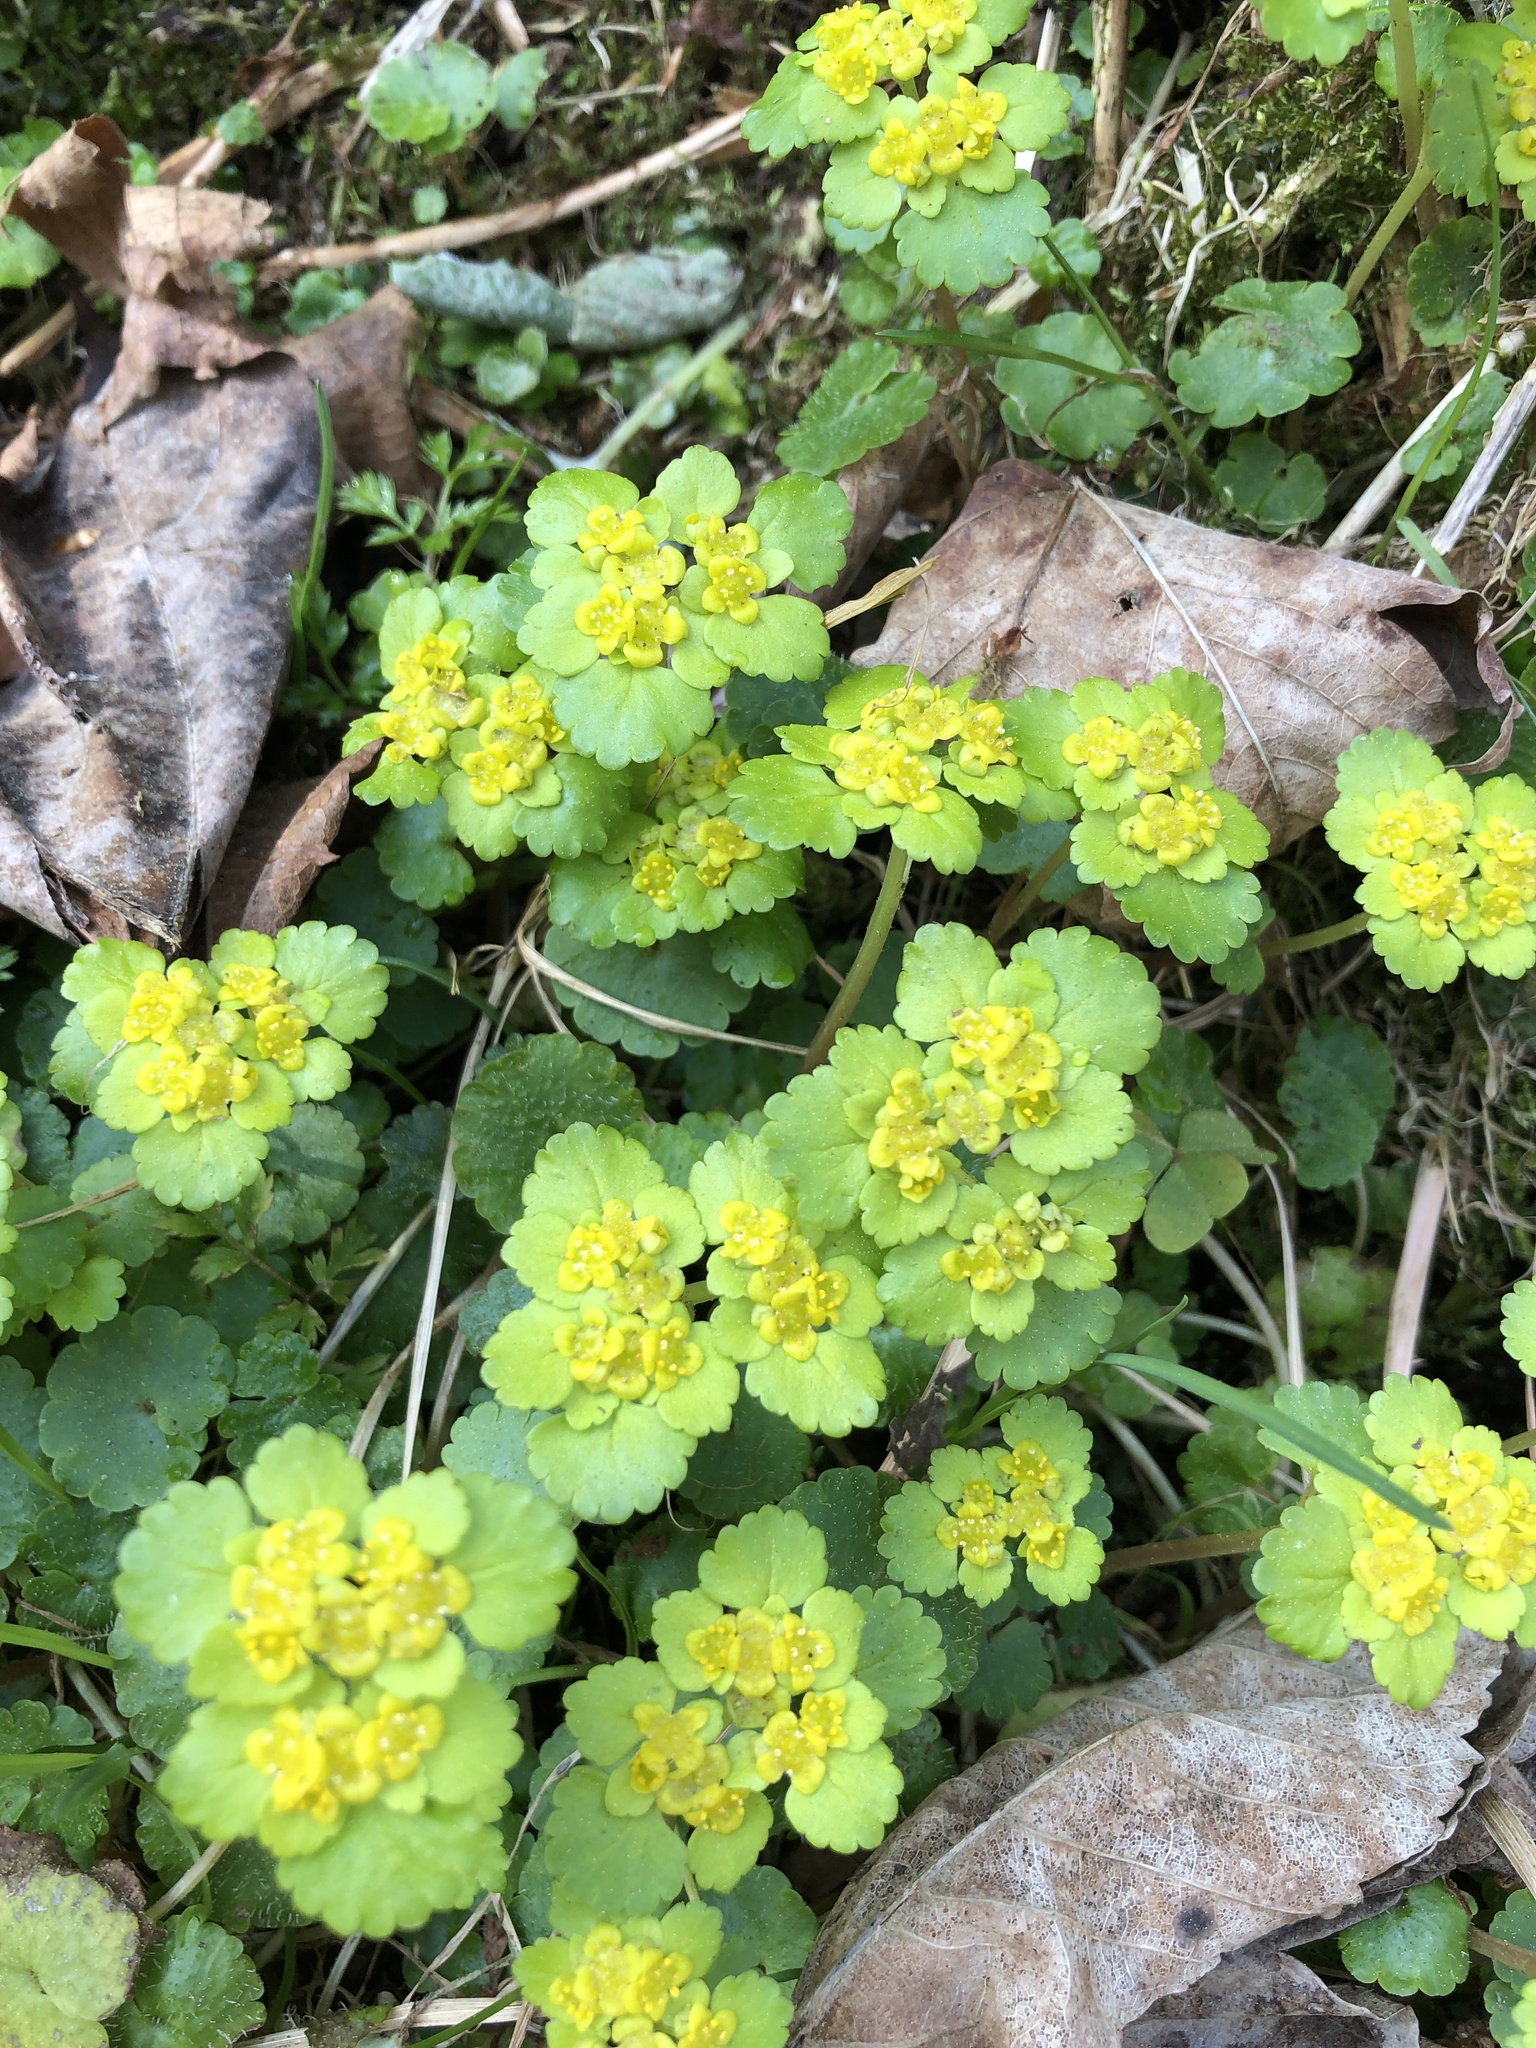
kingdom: Plantae
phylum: Tracheophyta
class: Magnoliopsida
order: Saxifragales
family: Saxifragaceae
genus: Chrysosplenium
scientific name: Chrysosplenium alternifolium
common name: Alternate-leaved golden-saxifrage
